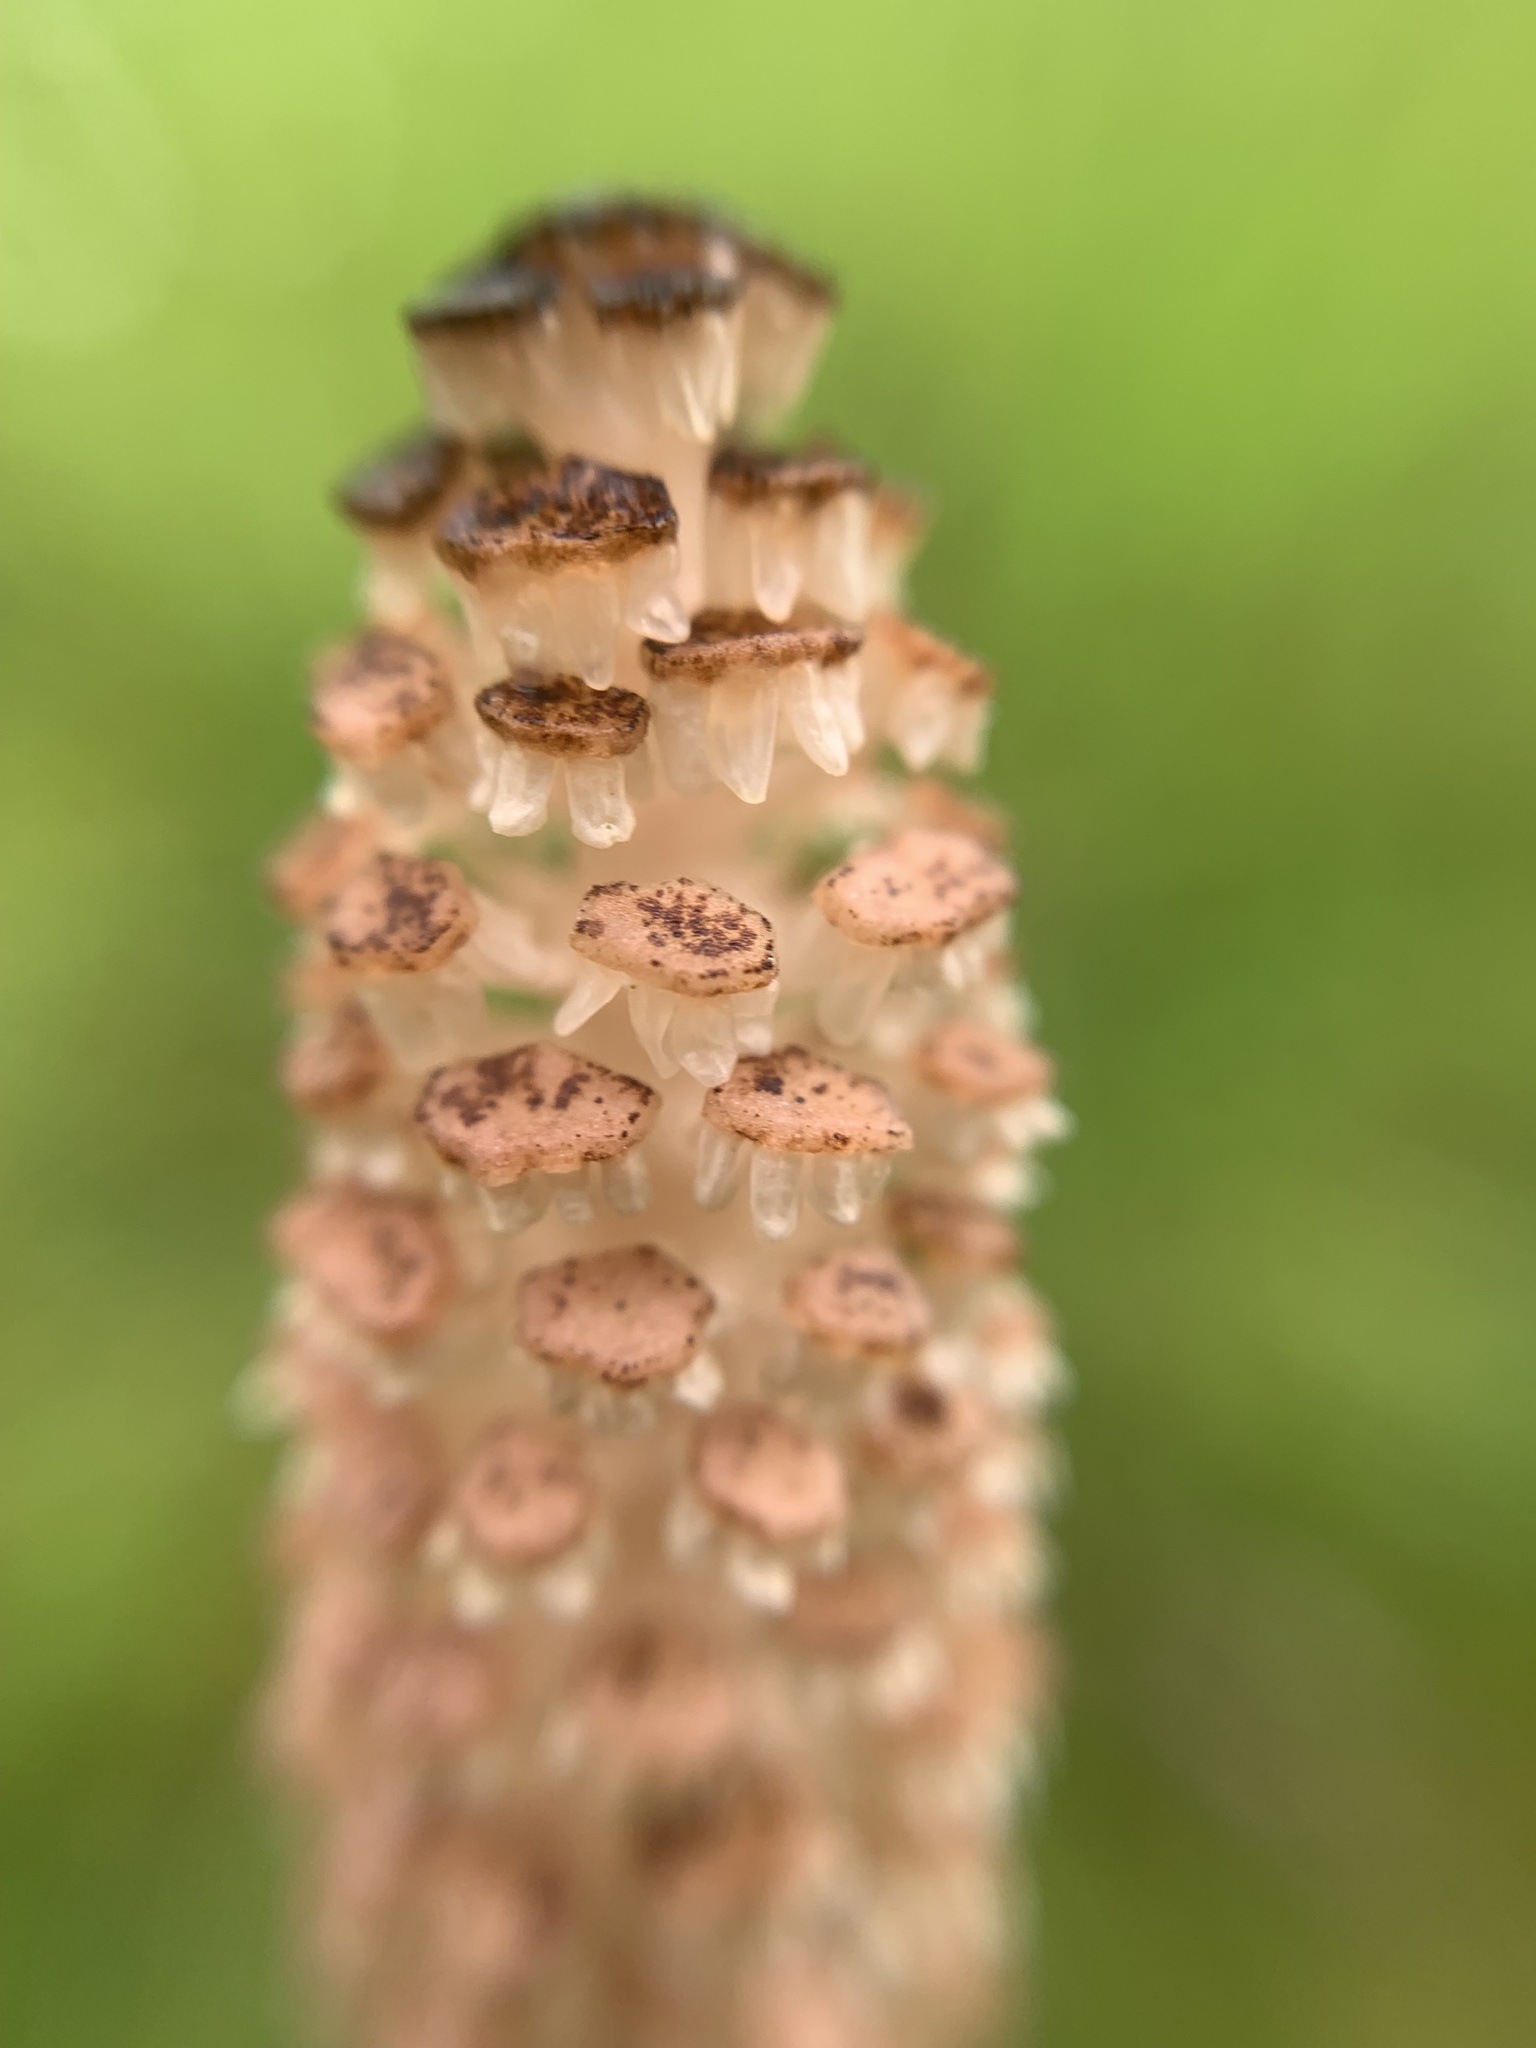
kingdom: Plantae
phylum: Tracheophyta
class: Polypodiopsida
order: Equisetales
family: Equisetaceae
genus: Equisetum
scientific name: Equisetum arvense
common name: Field horsetail
